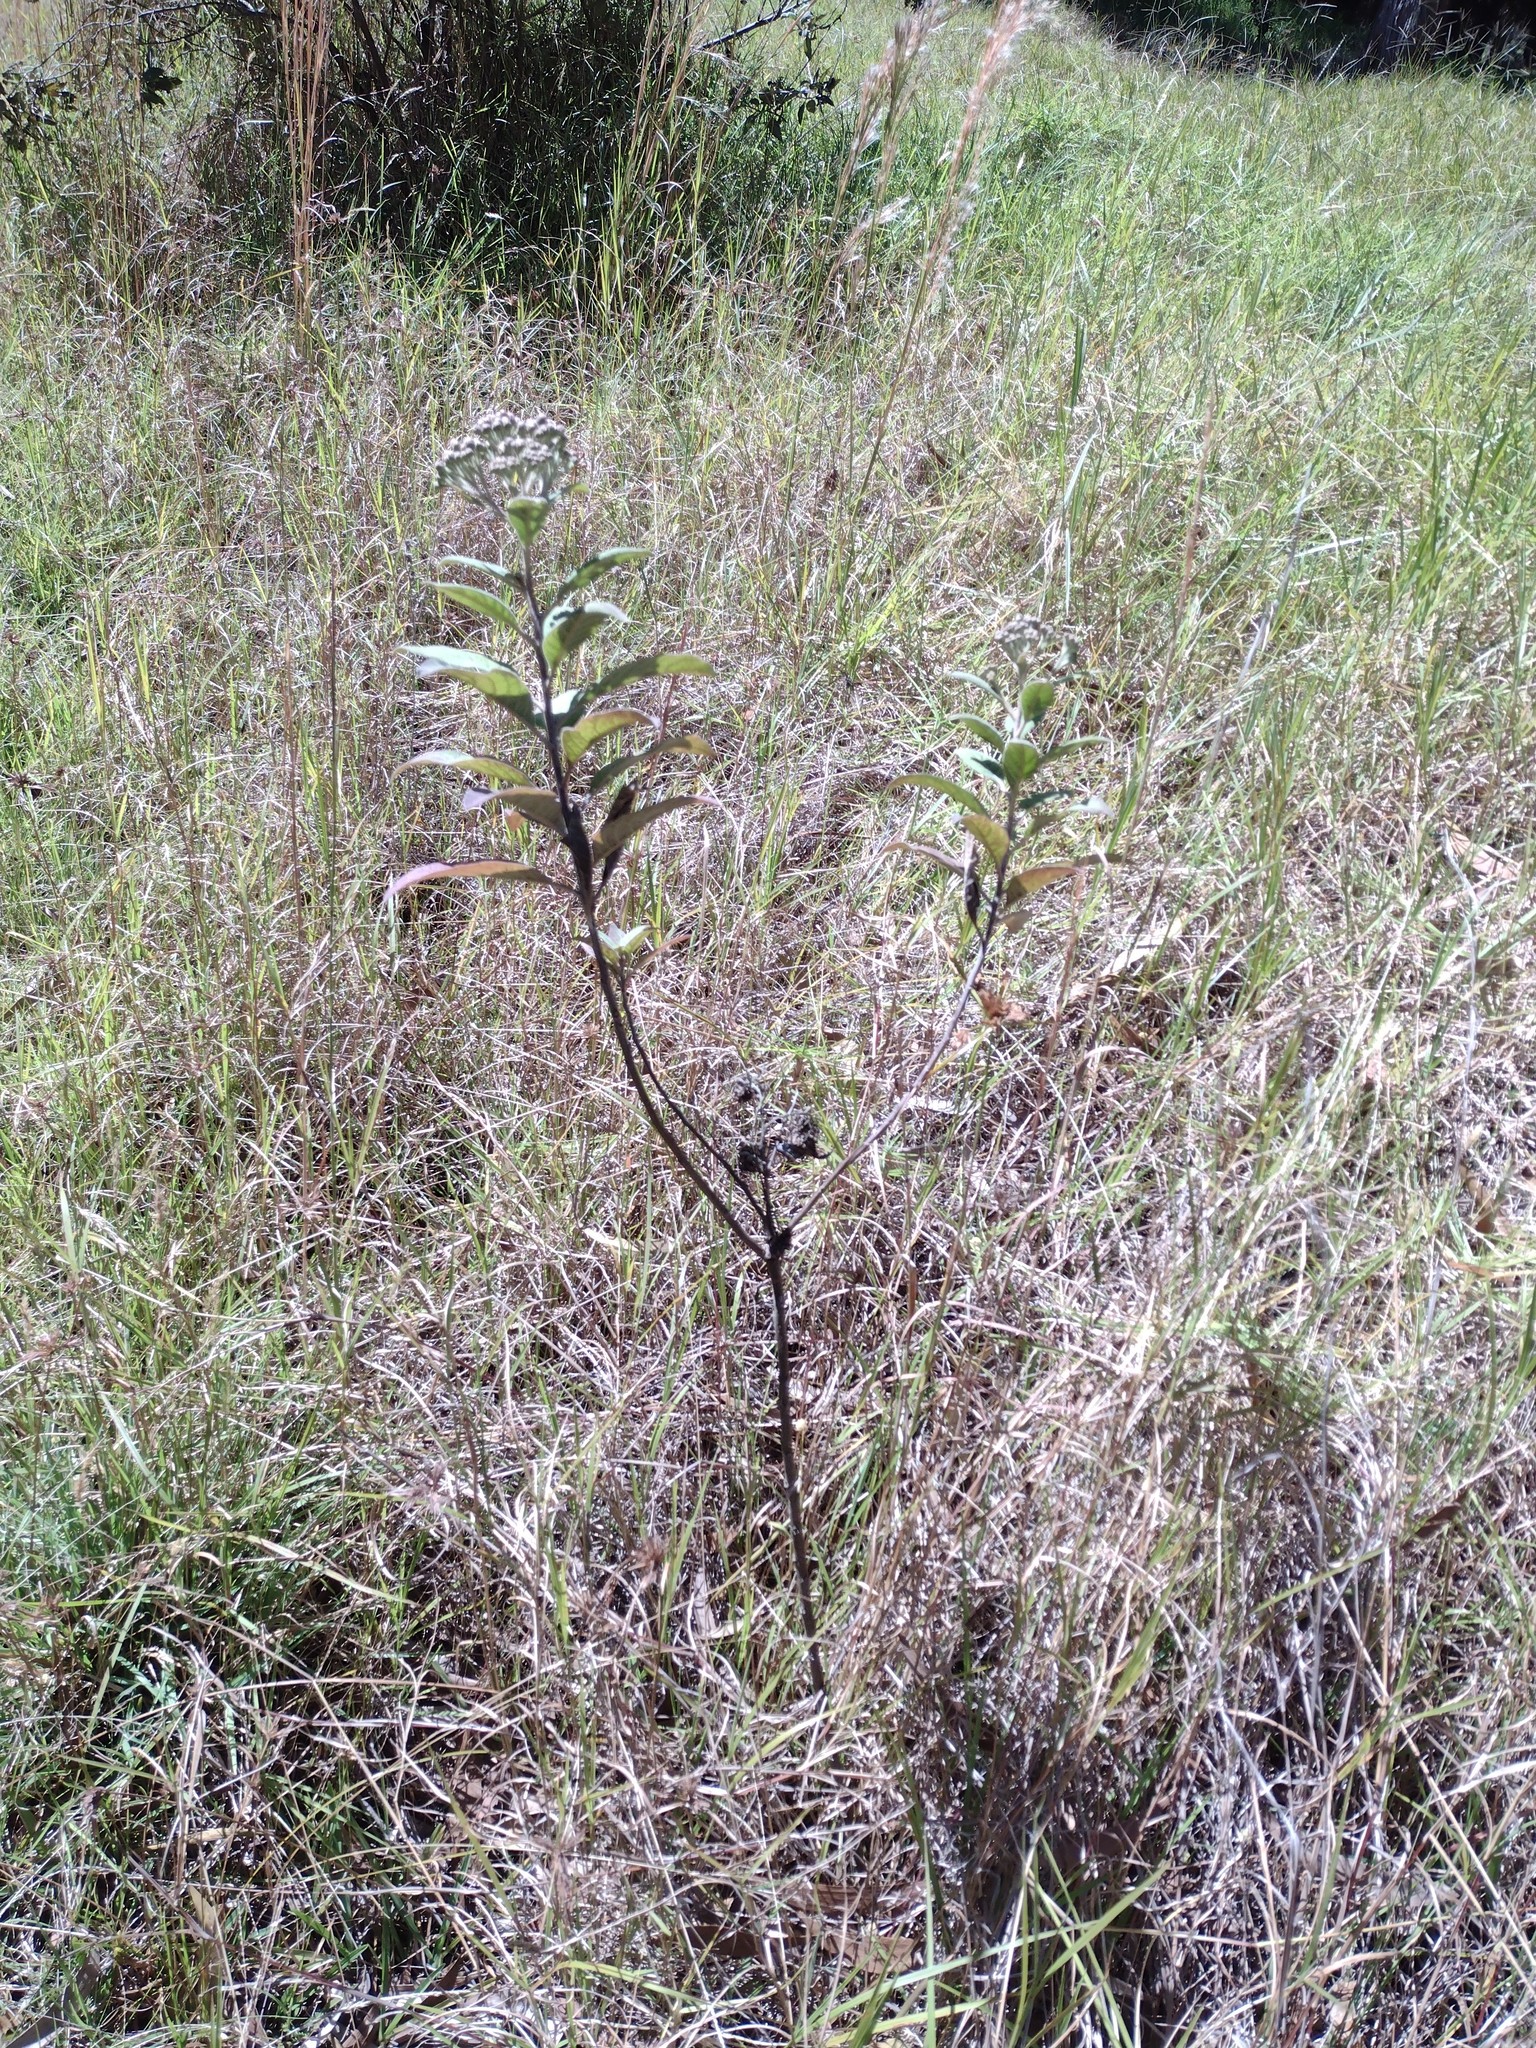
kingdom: Plantae
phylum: Tracheophyta
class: Magnoliopsida
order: Asterales
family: Asteraceae
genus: Pluchea
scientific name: Pluchea carolinensis
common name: Marsh fleabane
